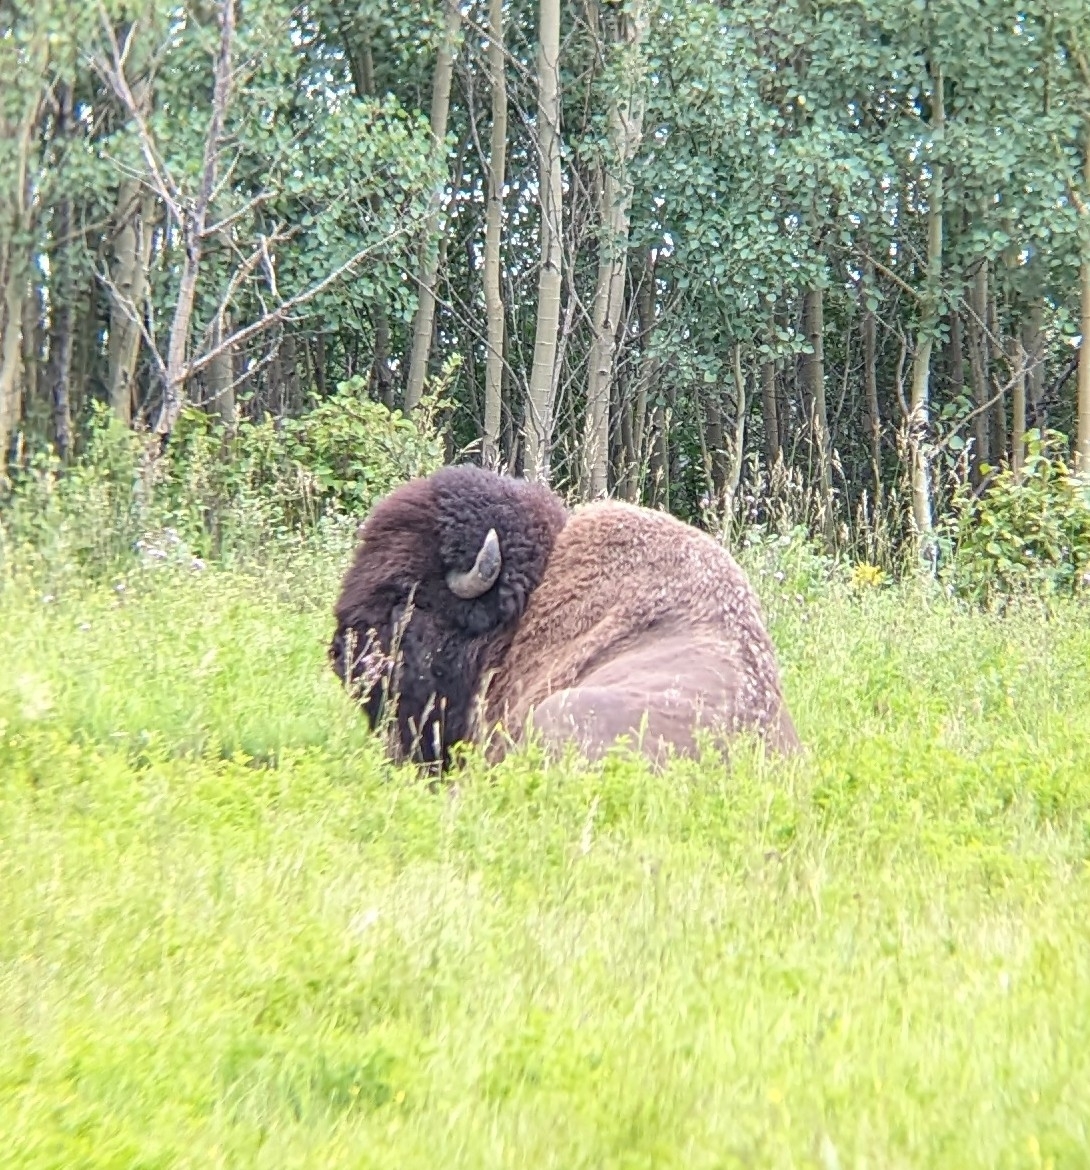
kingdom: Animalia
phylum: Chordata
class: Mammalia
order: Artiodactyla
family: Bovidae
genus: Bison
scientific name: Bison bison
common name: American bison
